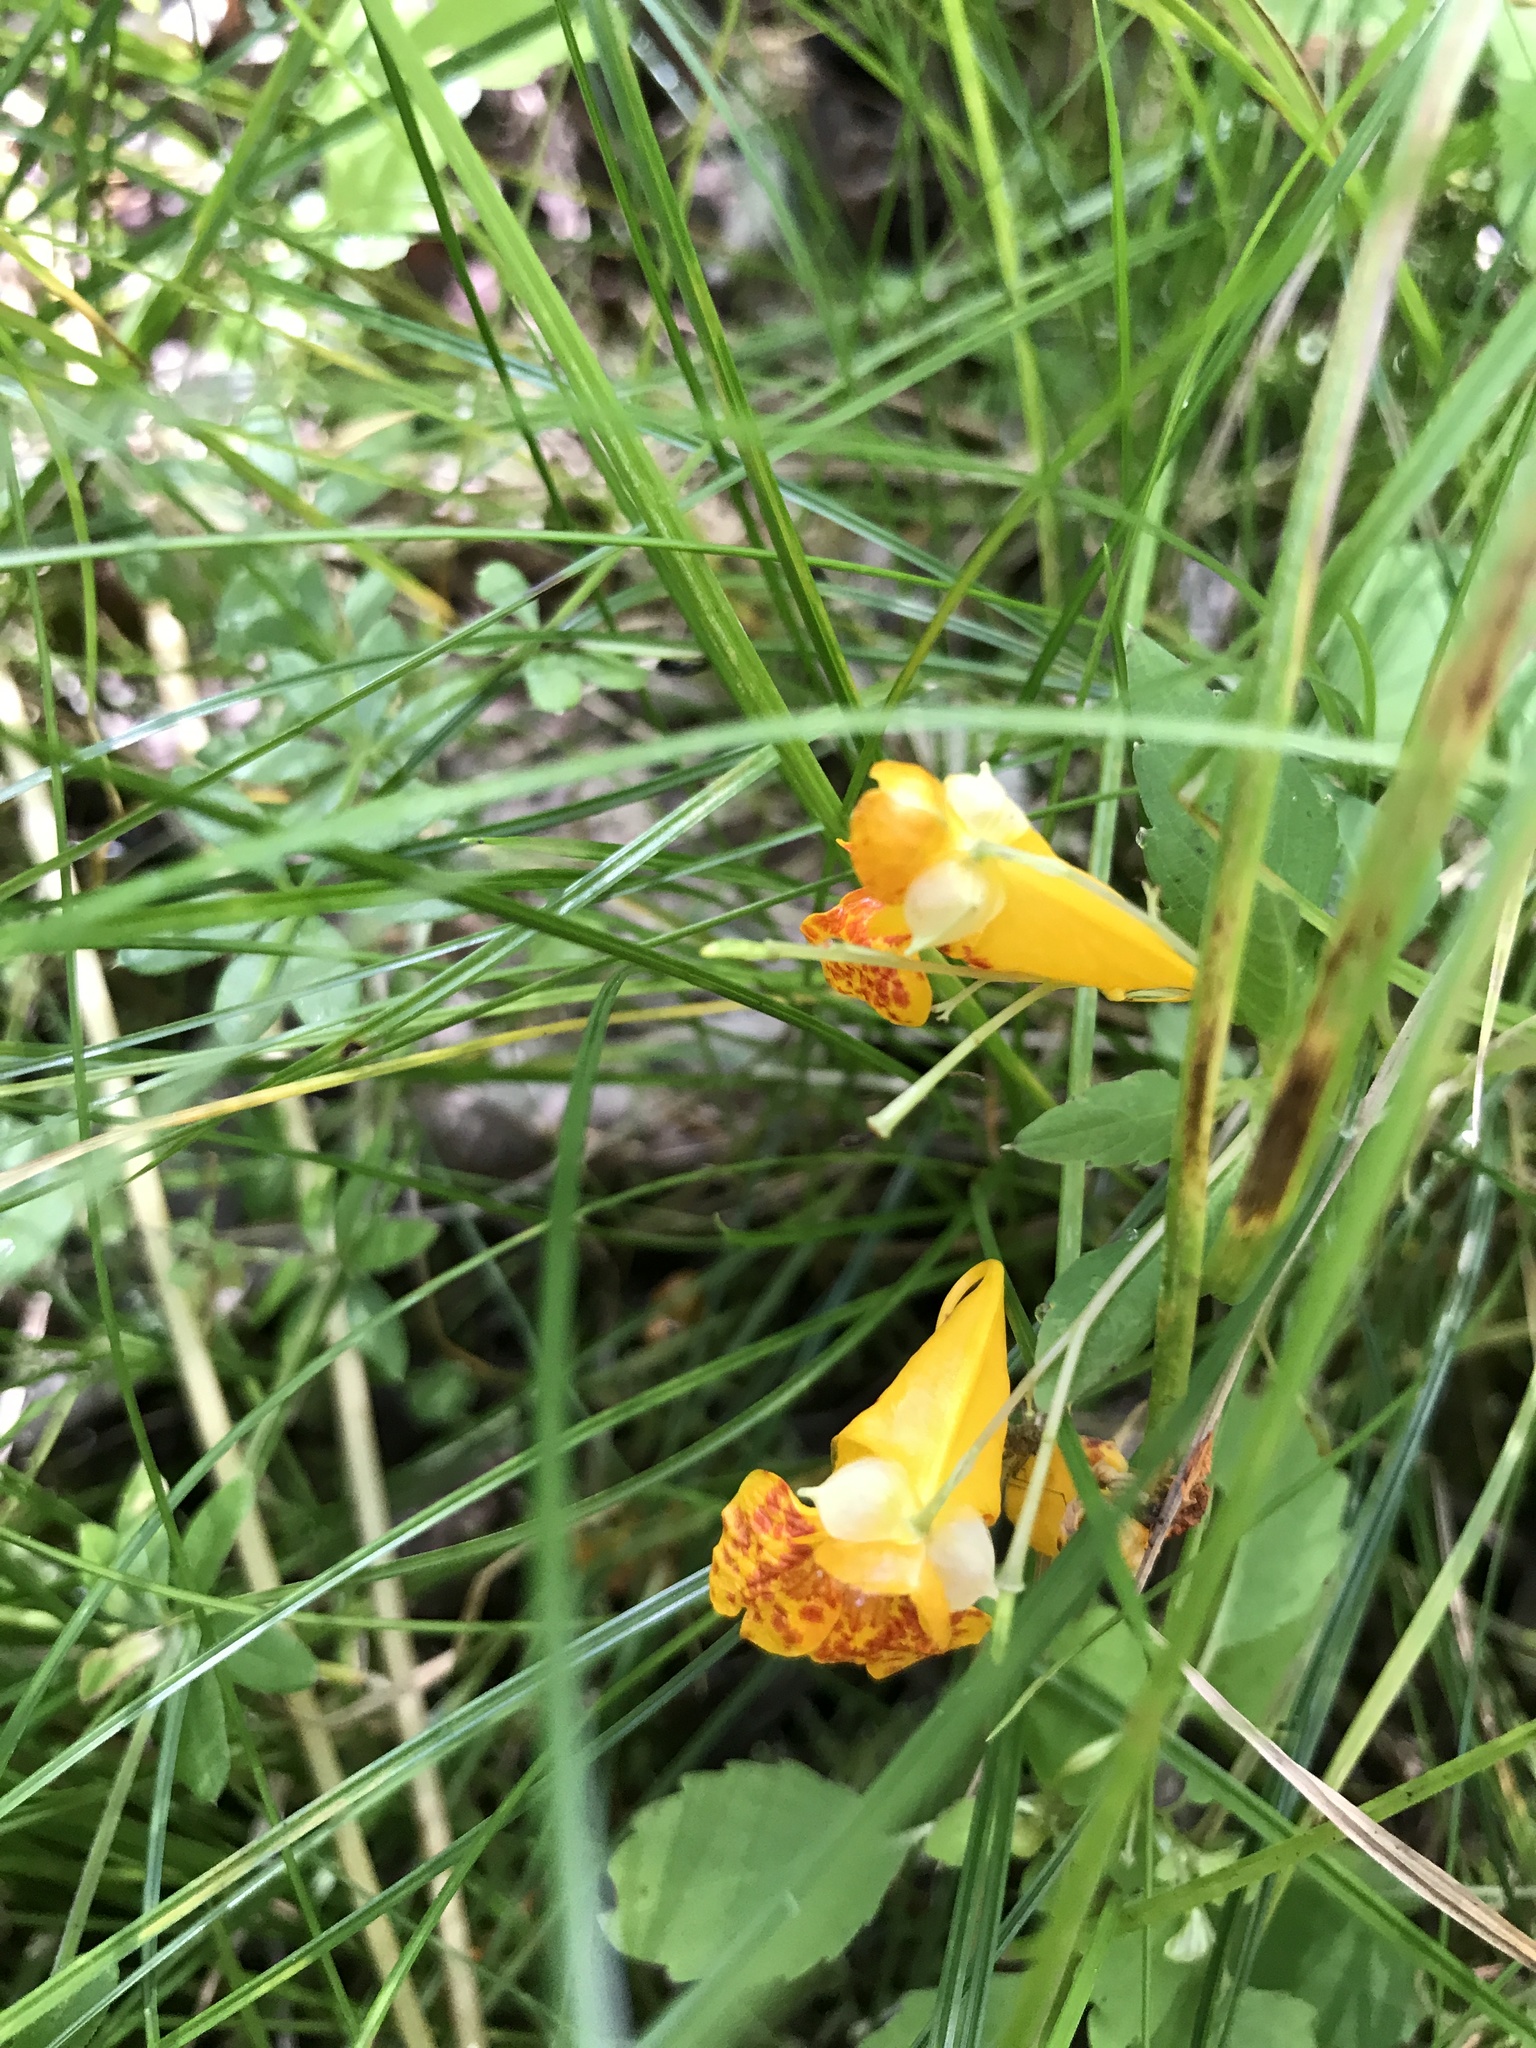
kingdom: Plantae
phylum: Tracheophyta
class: Magnoliopsida
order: Ericales
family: Balsaminaceae
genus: Impatiens
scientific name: Impatiens capensis
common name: Orange balsam
